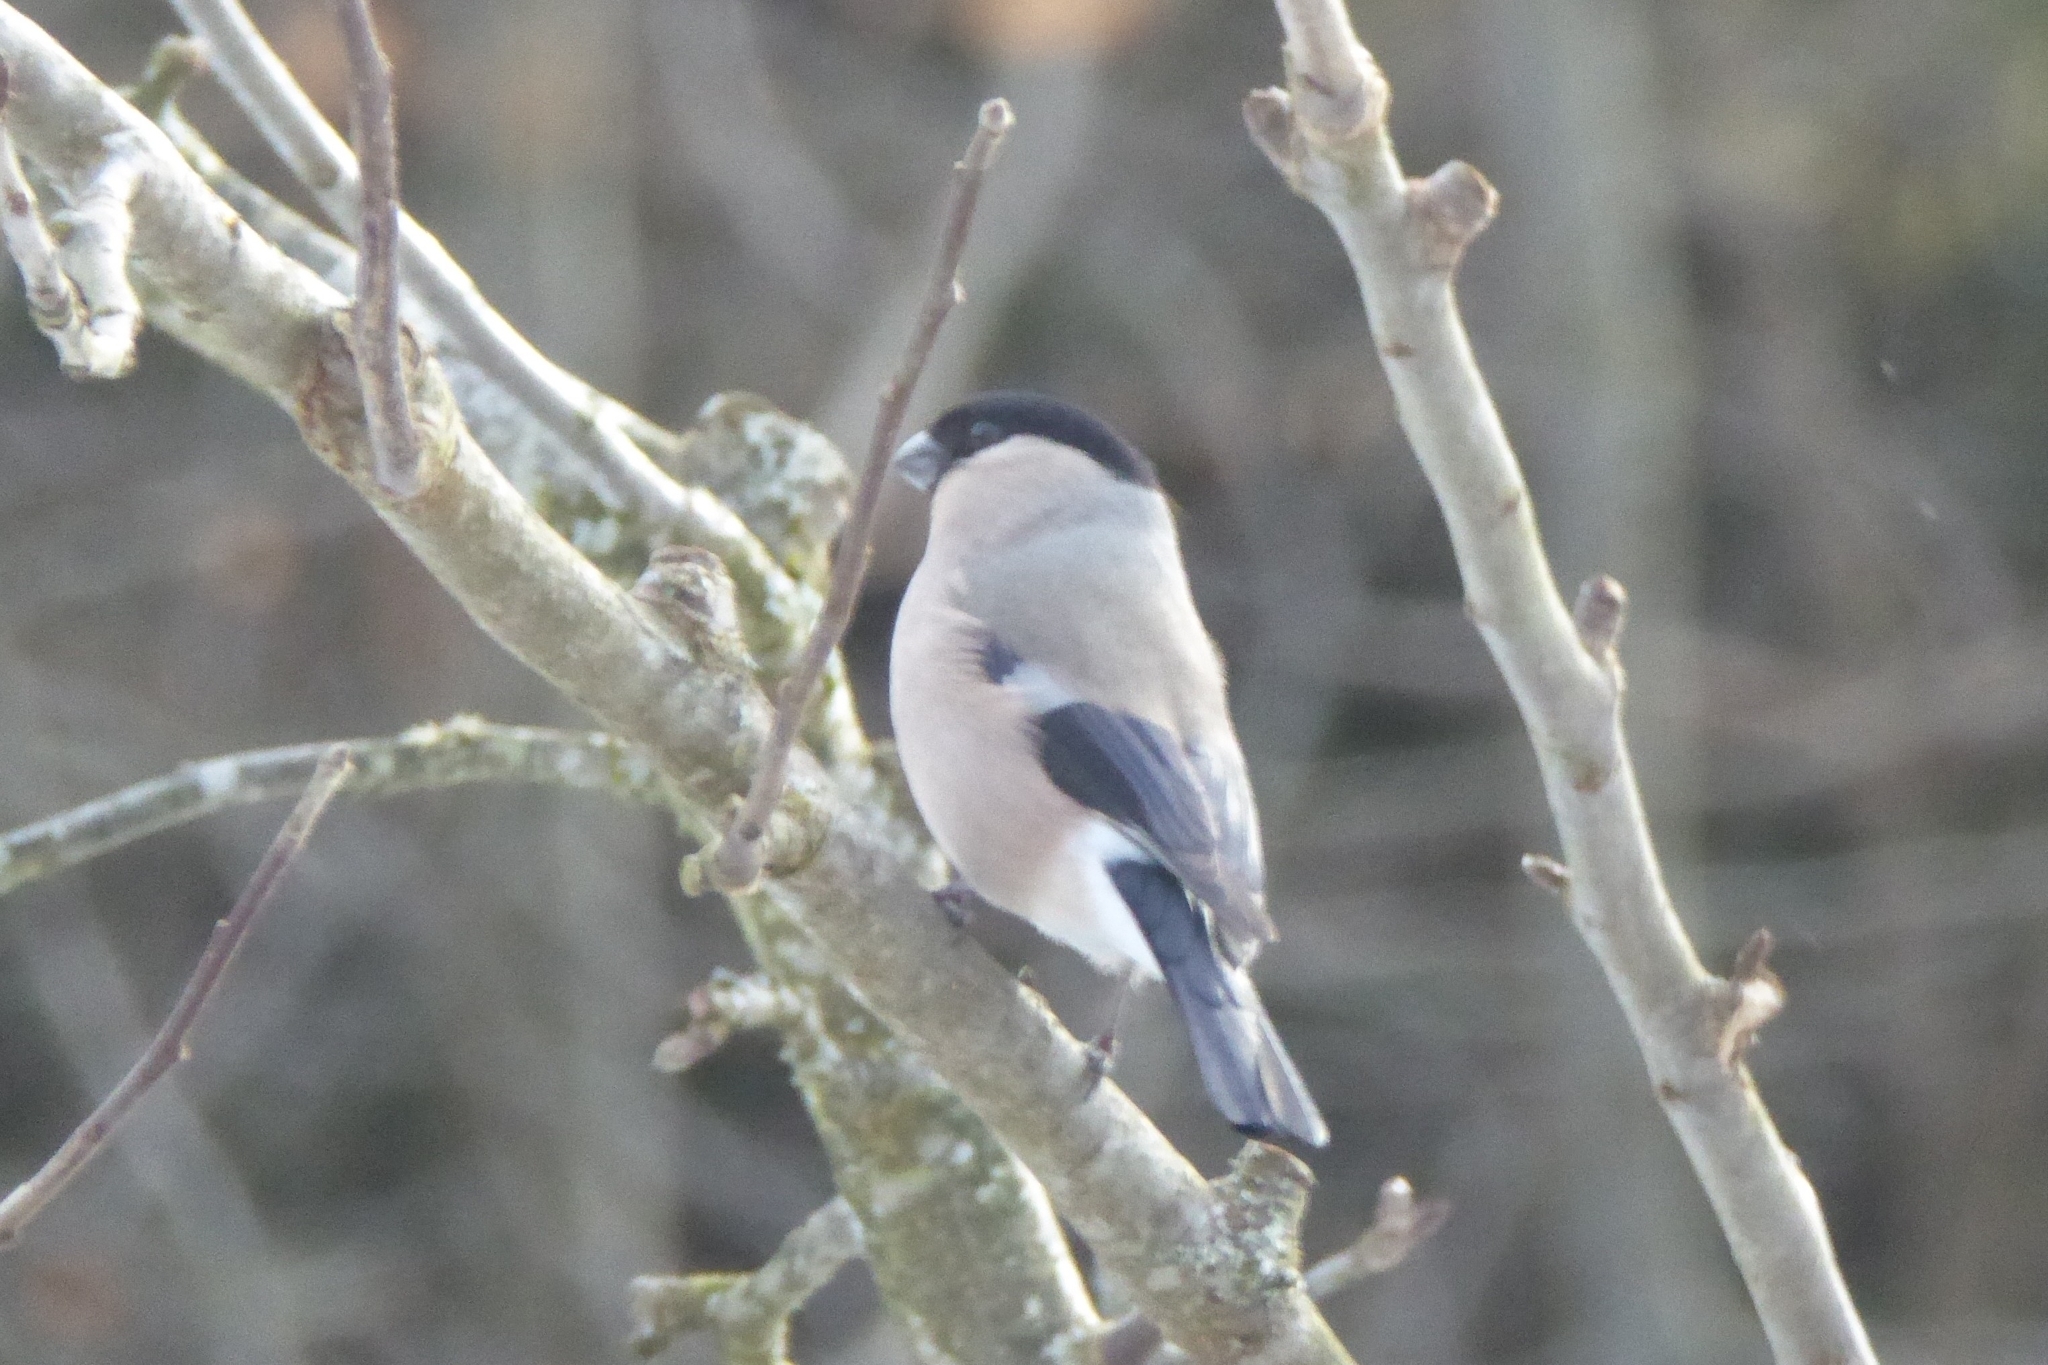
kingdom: Animalia
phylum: Chordata
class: Aves
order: Passeriformes
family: Fringillidae
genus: Pyrrhula
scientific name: Pyrrhula pyrrhula
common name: Eurasian bullfinch
